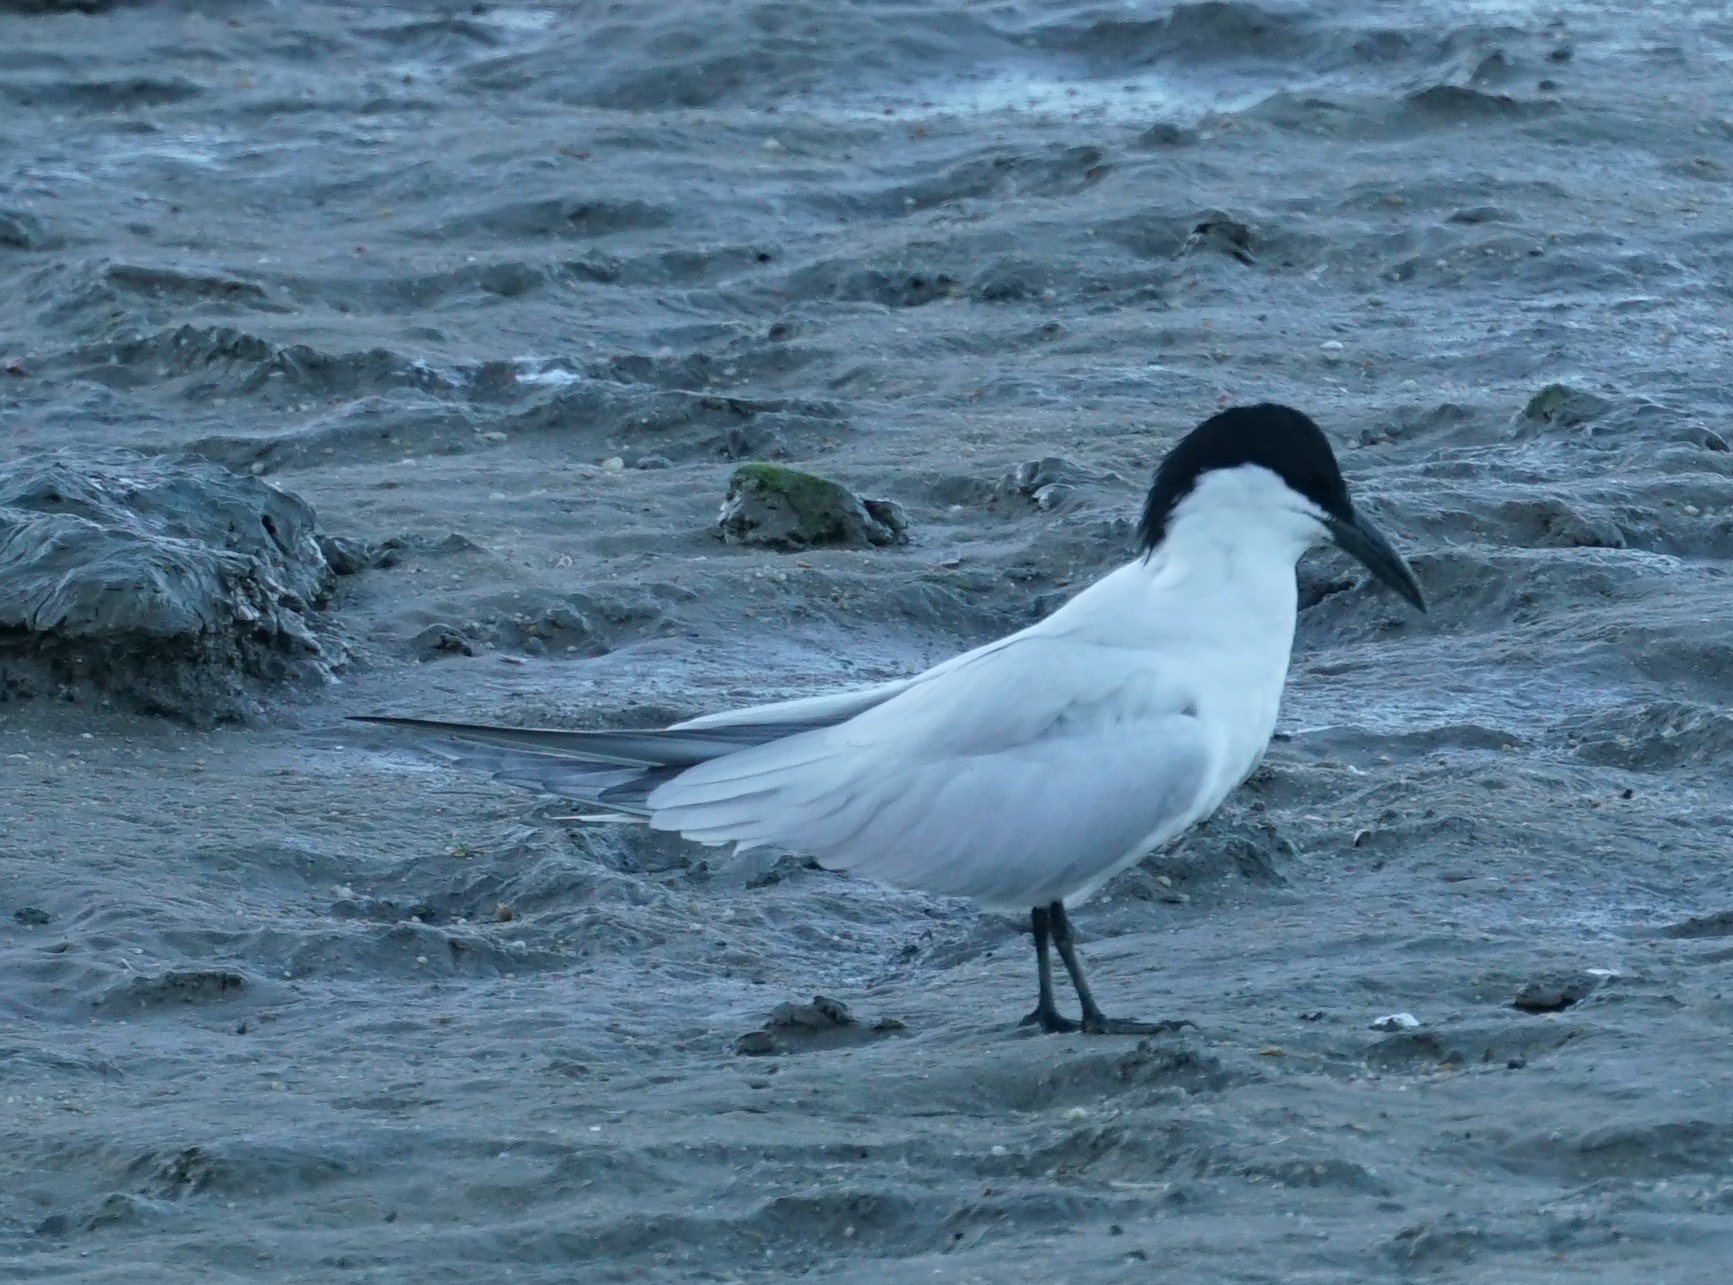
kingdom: Animalia
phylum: Chordata
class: Aves
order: Charadriiformes
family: Laridae
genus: Gelochelidon
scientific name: Gelochelidon macrotarsa
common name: Australian tern
